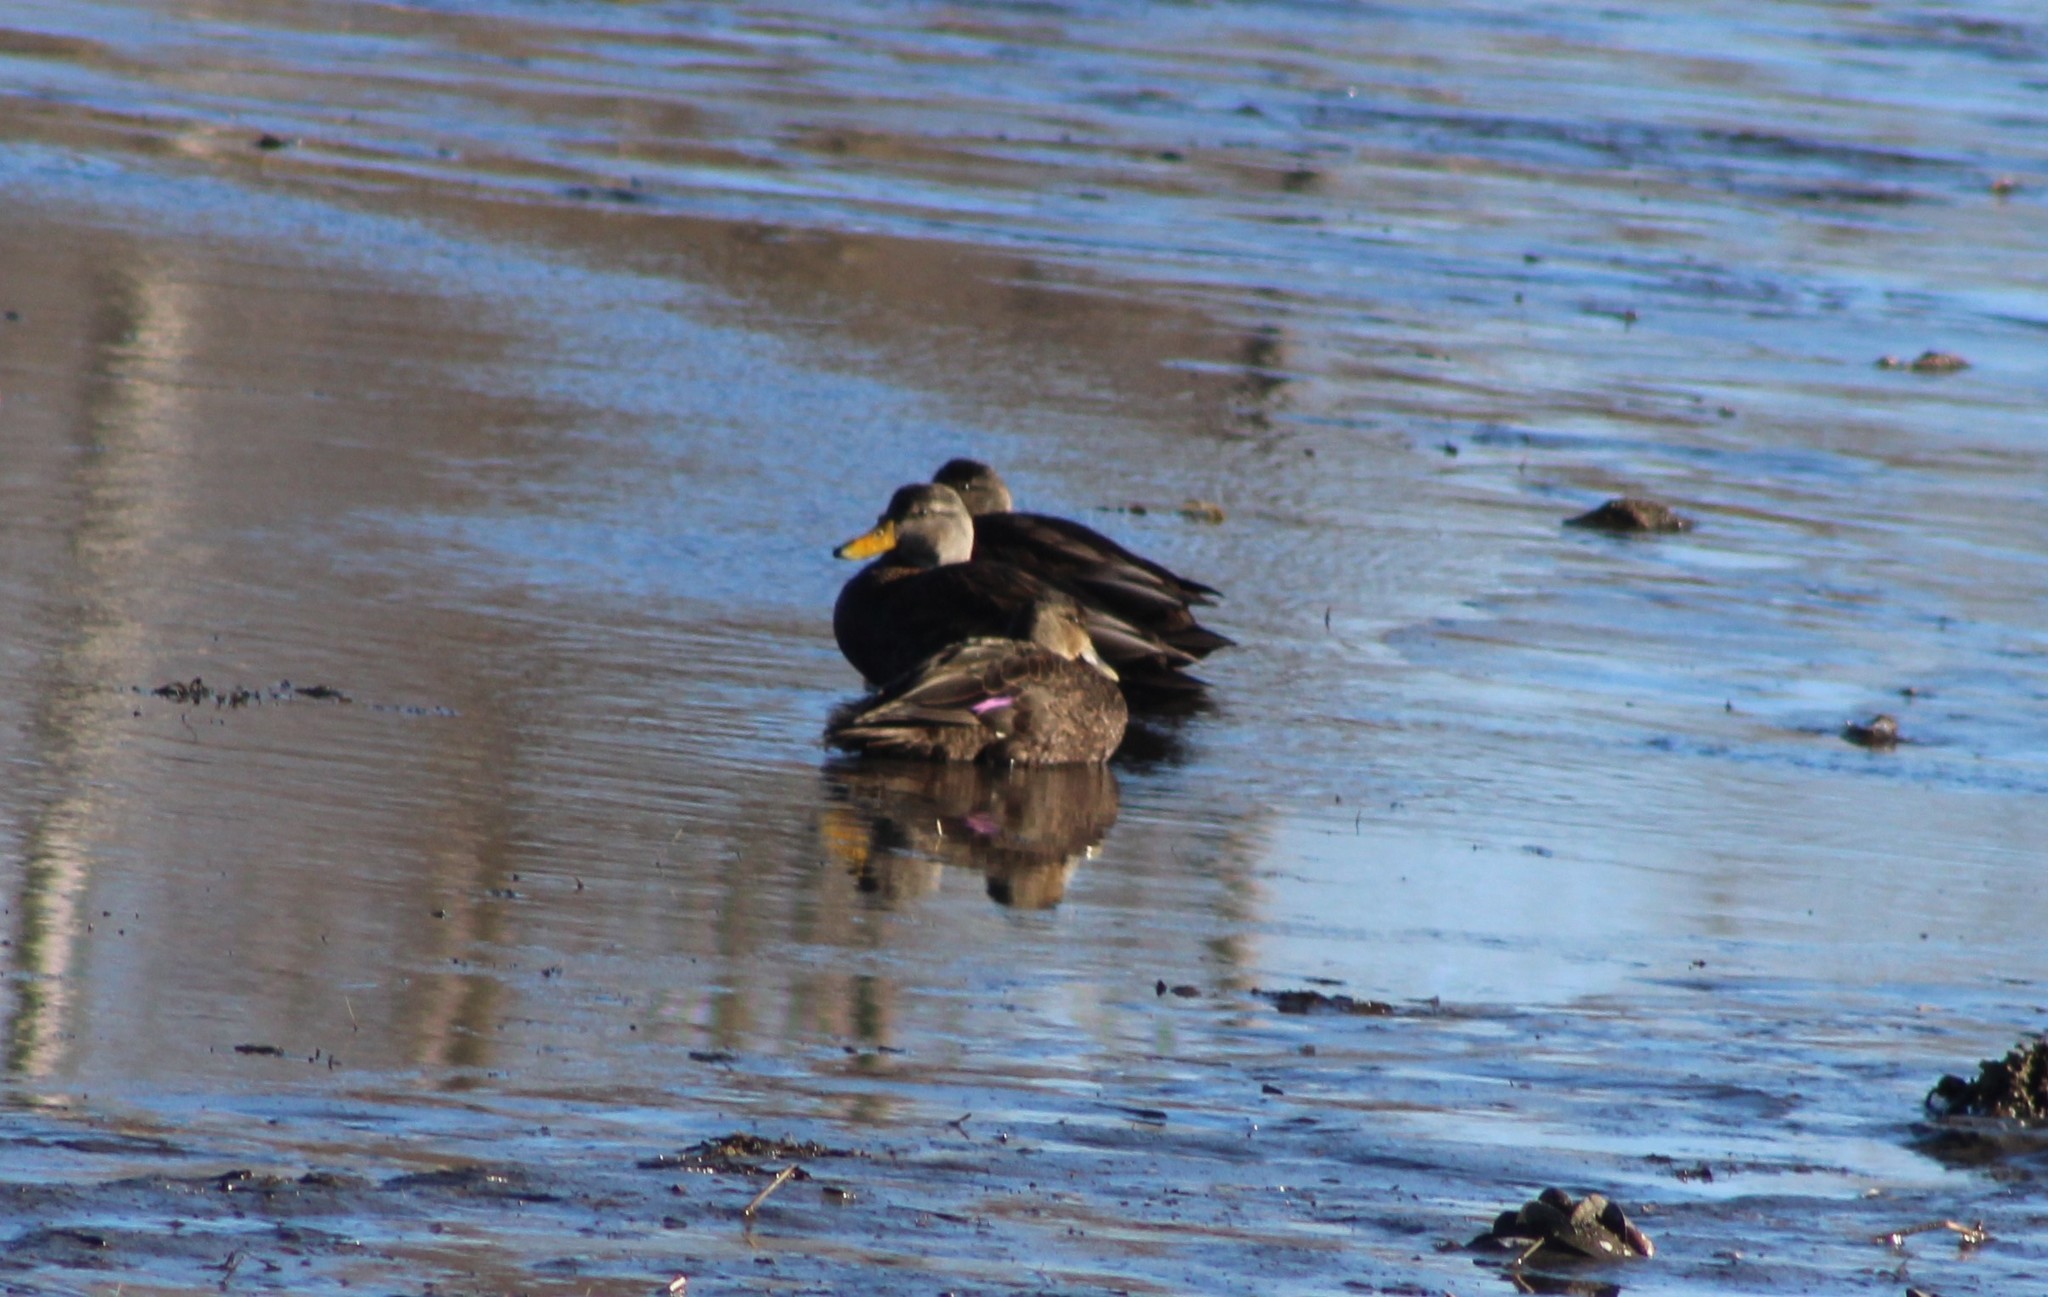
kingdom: Animalia
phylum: Chordata
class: Aves
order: Anseriformes
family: Anatidae
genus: Anas
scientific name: Anas rubripes
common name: American black duck
